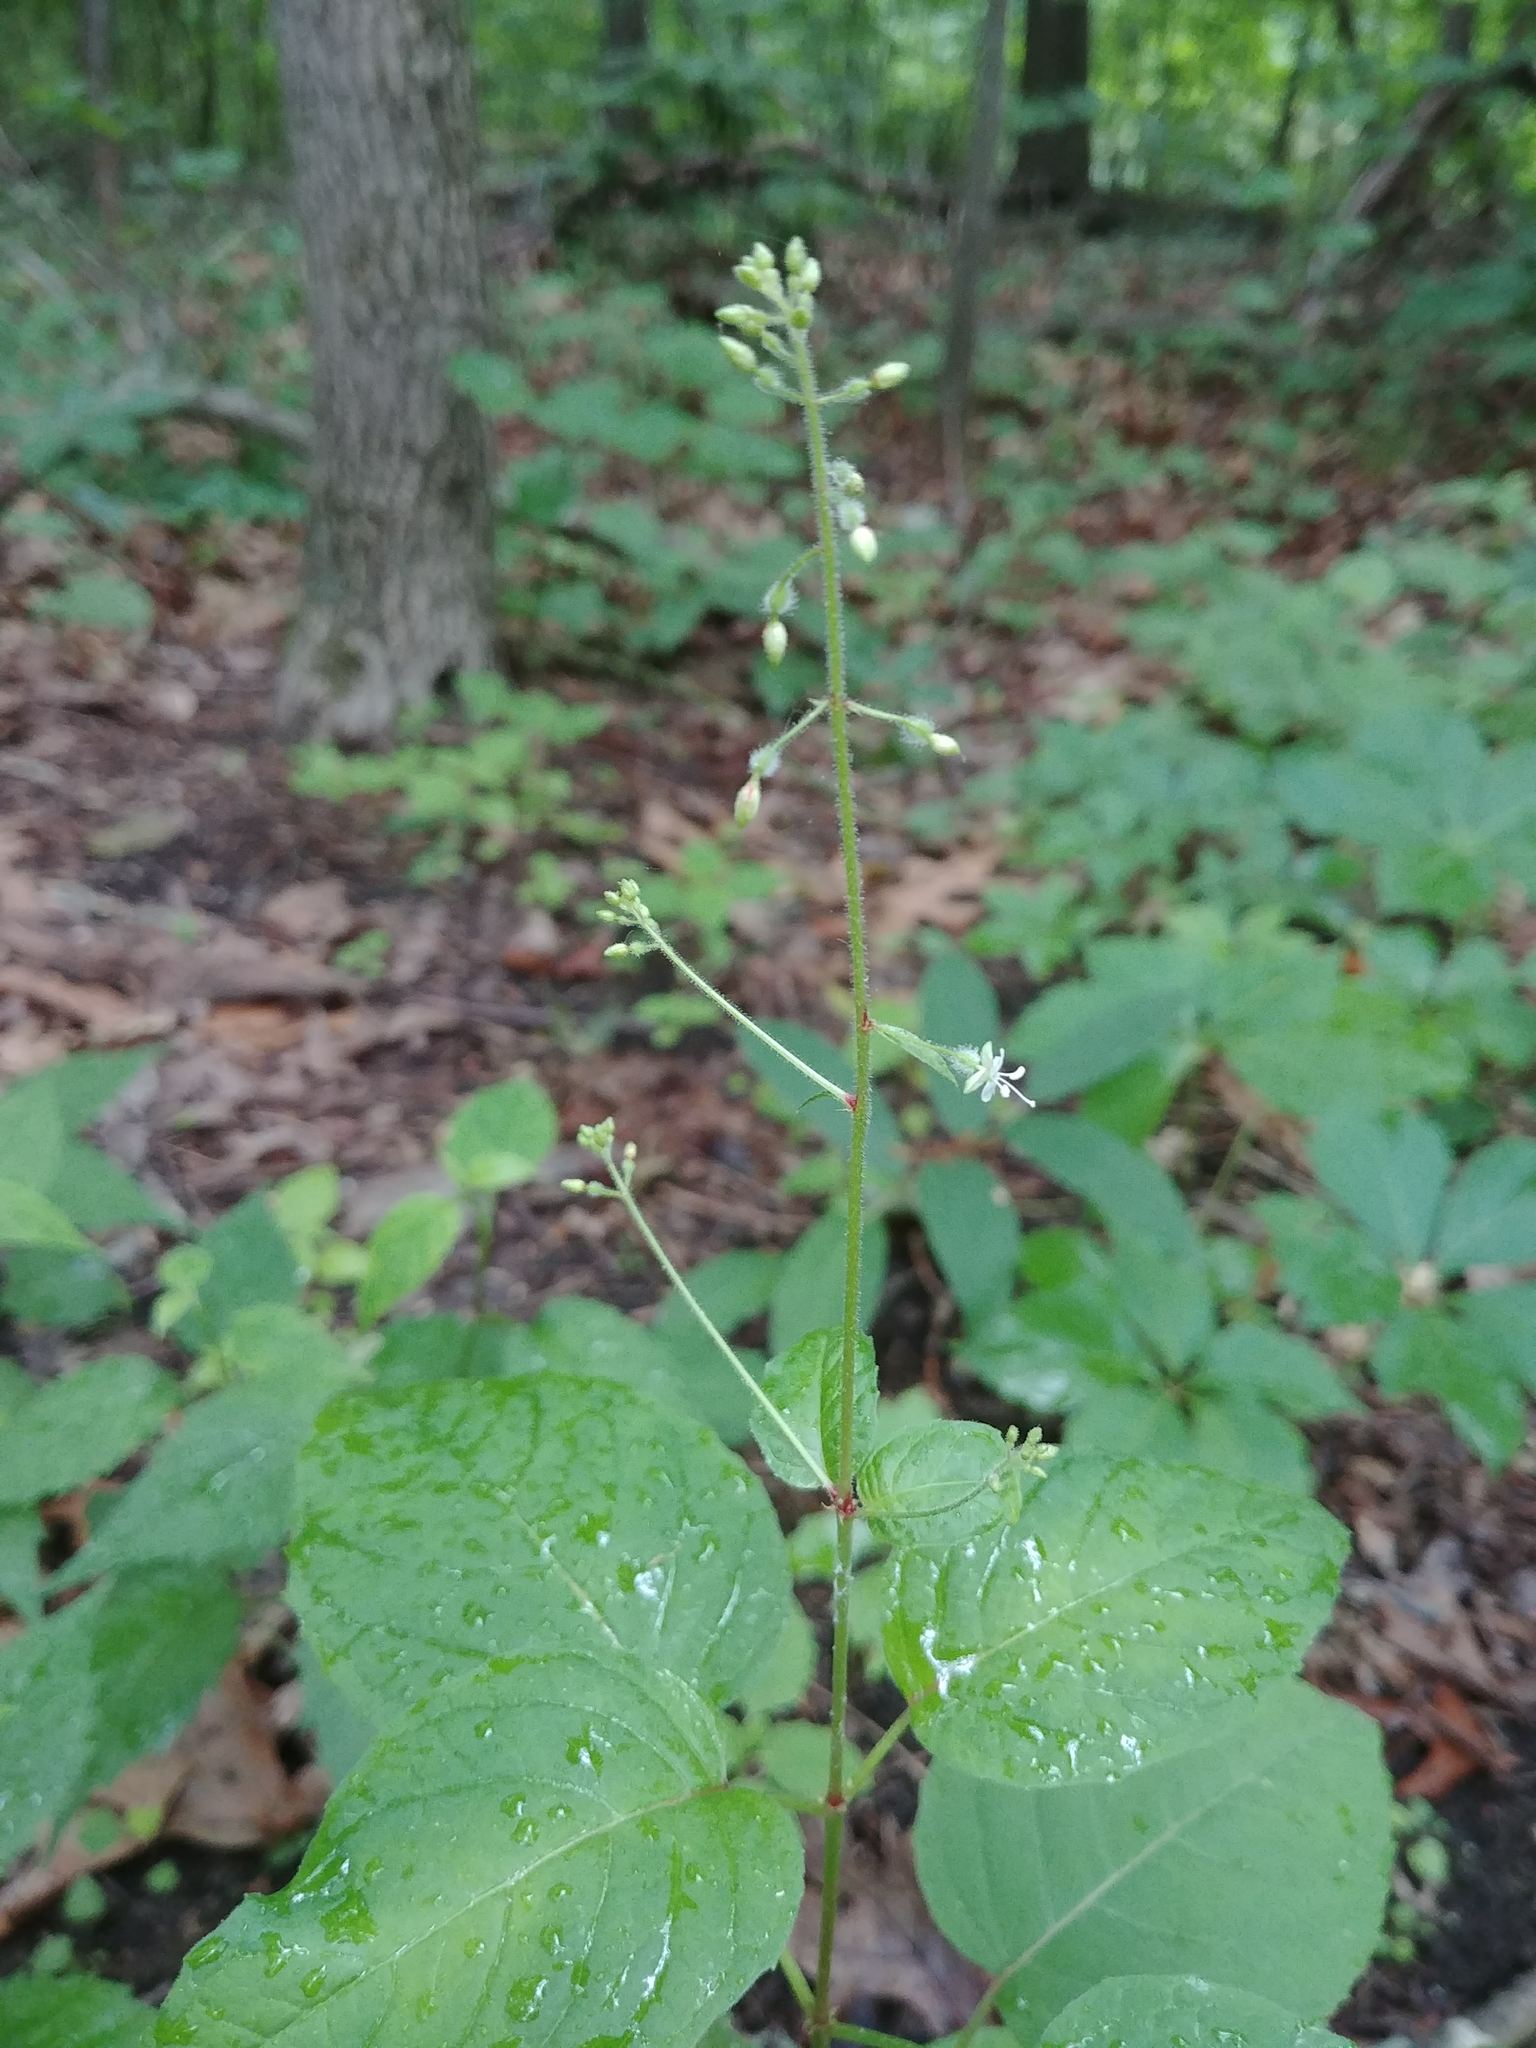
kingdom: Plantae
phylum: Tracheophyta
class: Magnoliopsida
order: Myrtales
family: Onagraceae
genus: Circaea
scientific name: Circaea canadensis
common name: Broad-leaved enchanter's nightshade
